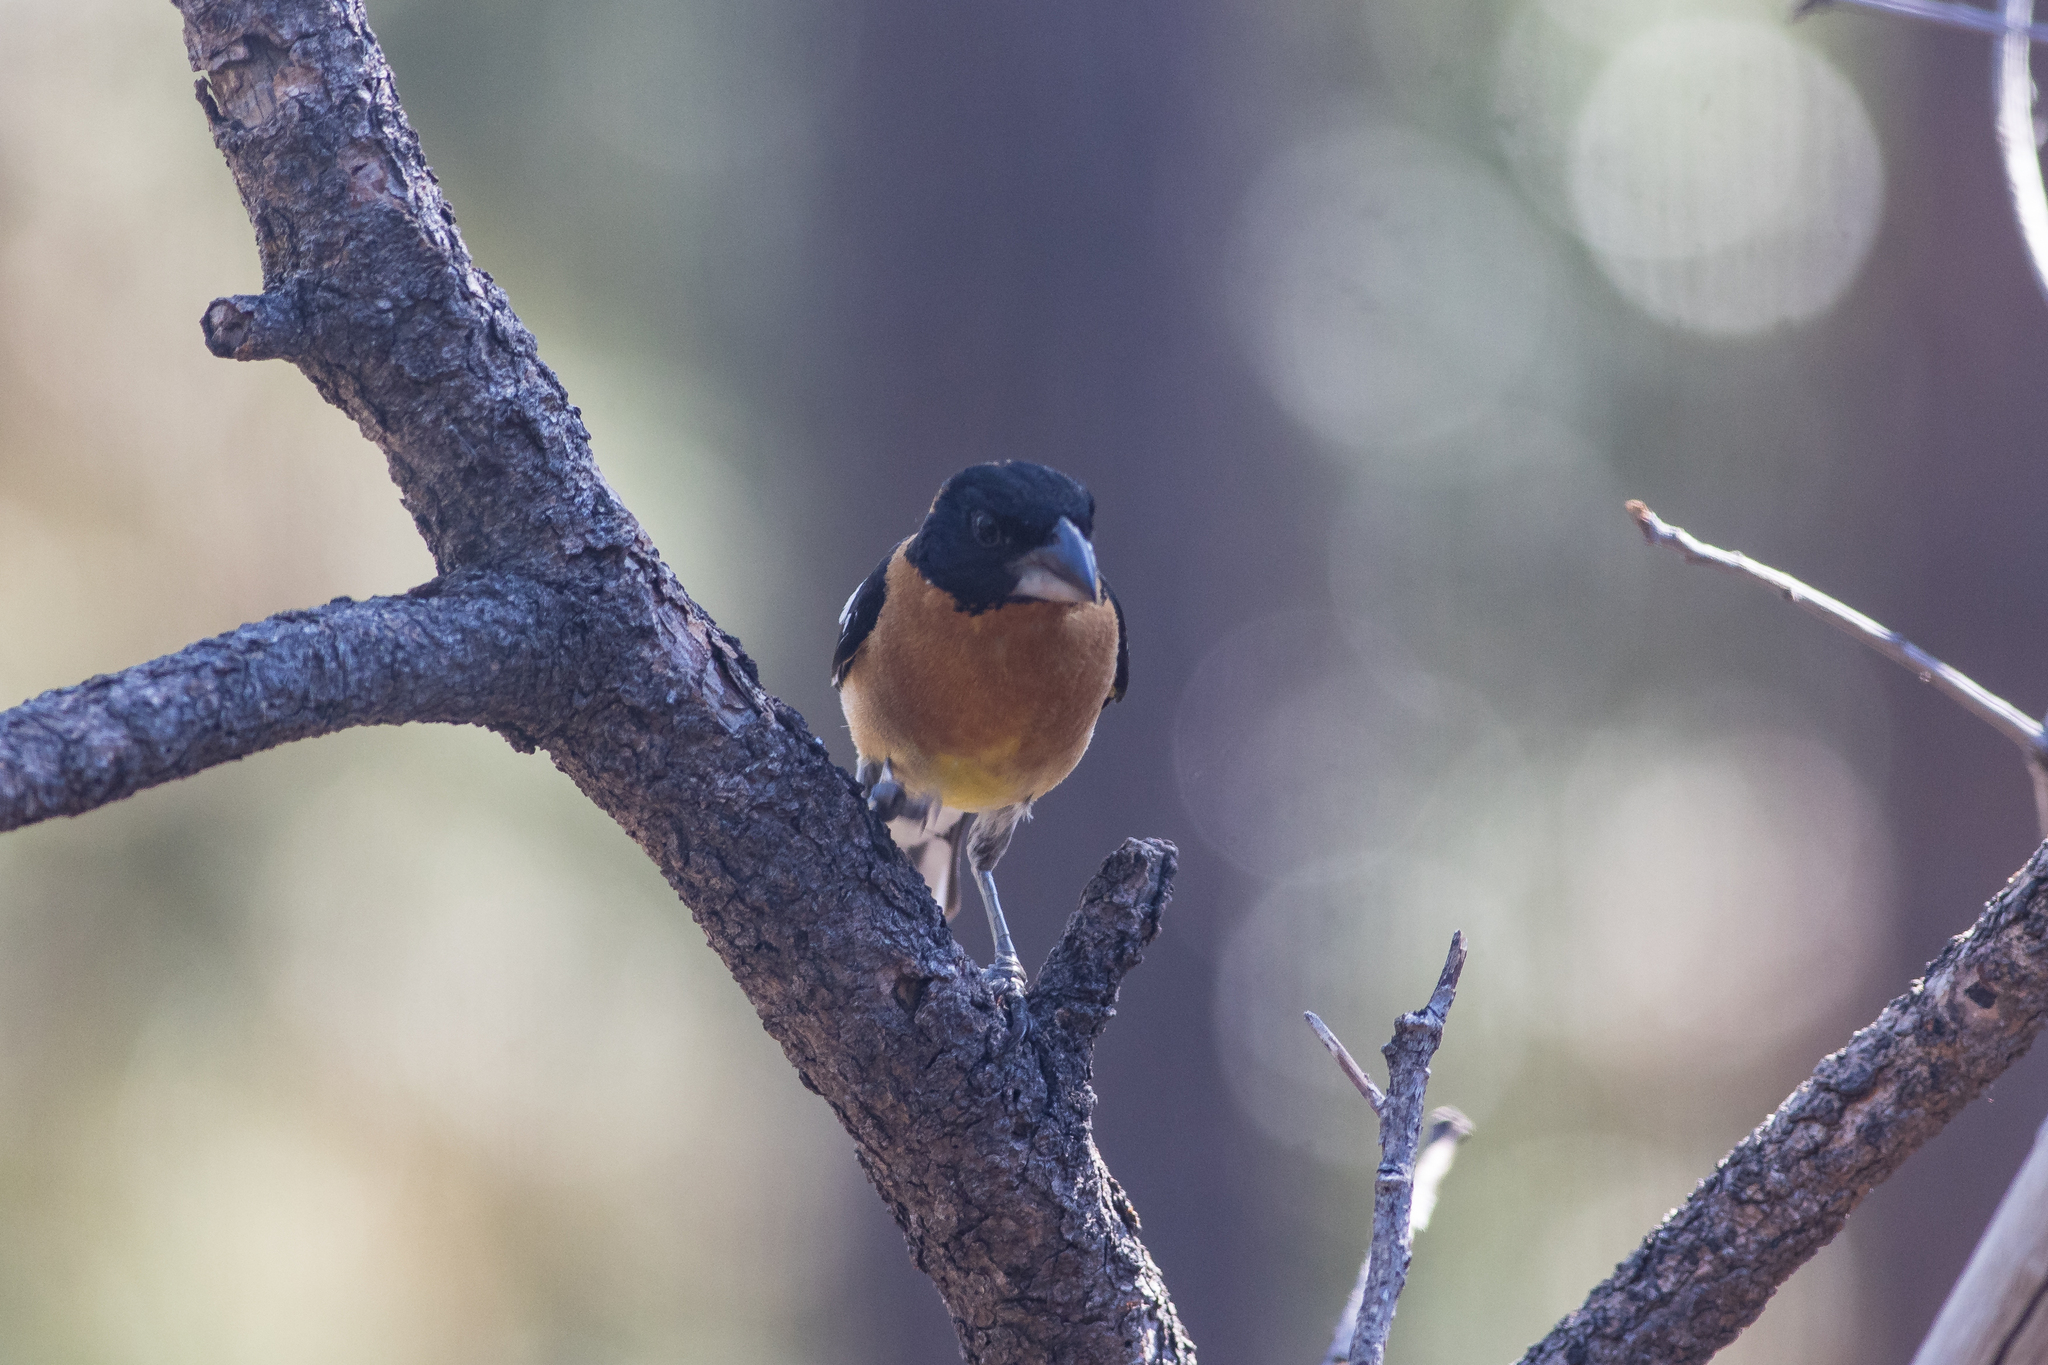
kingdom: Animalia
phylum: Chordata
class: Aves
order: Passeriformes
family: Cardinalidae
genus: Pheucticus
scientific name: Pheucticus melanocephalus
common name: Black-headed grosbeak
